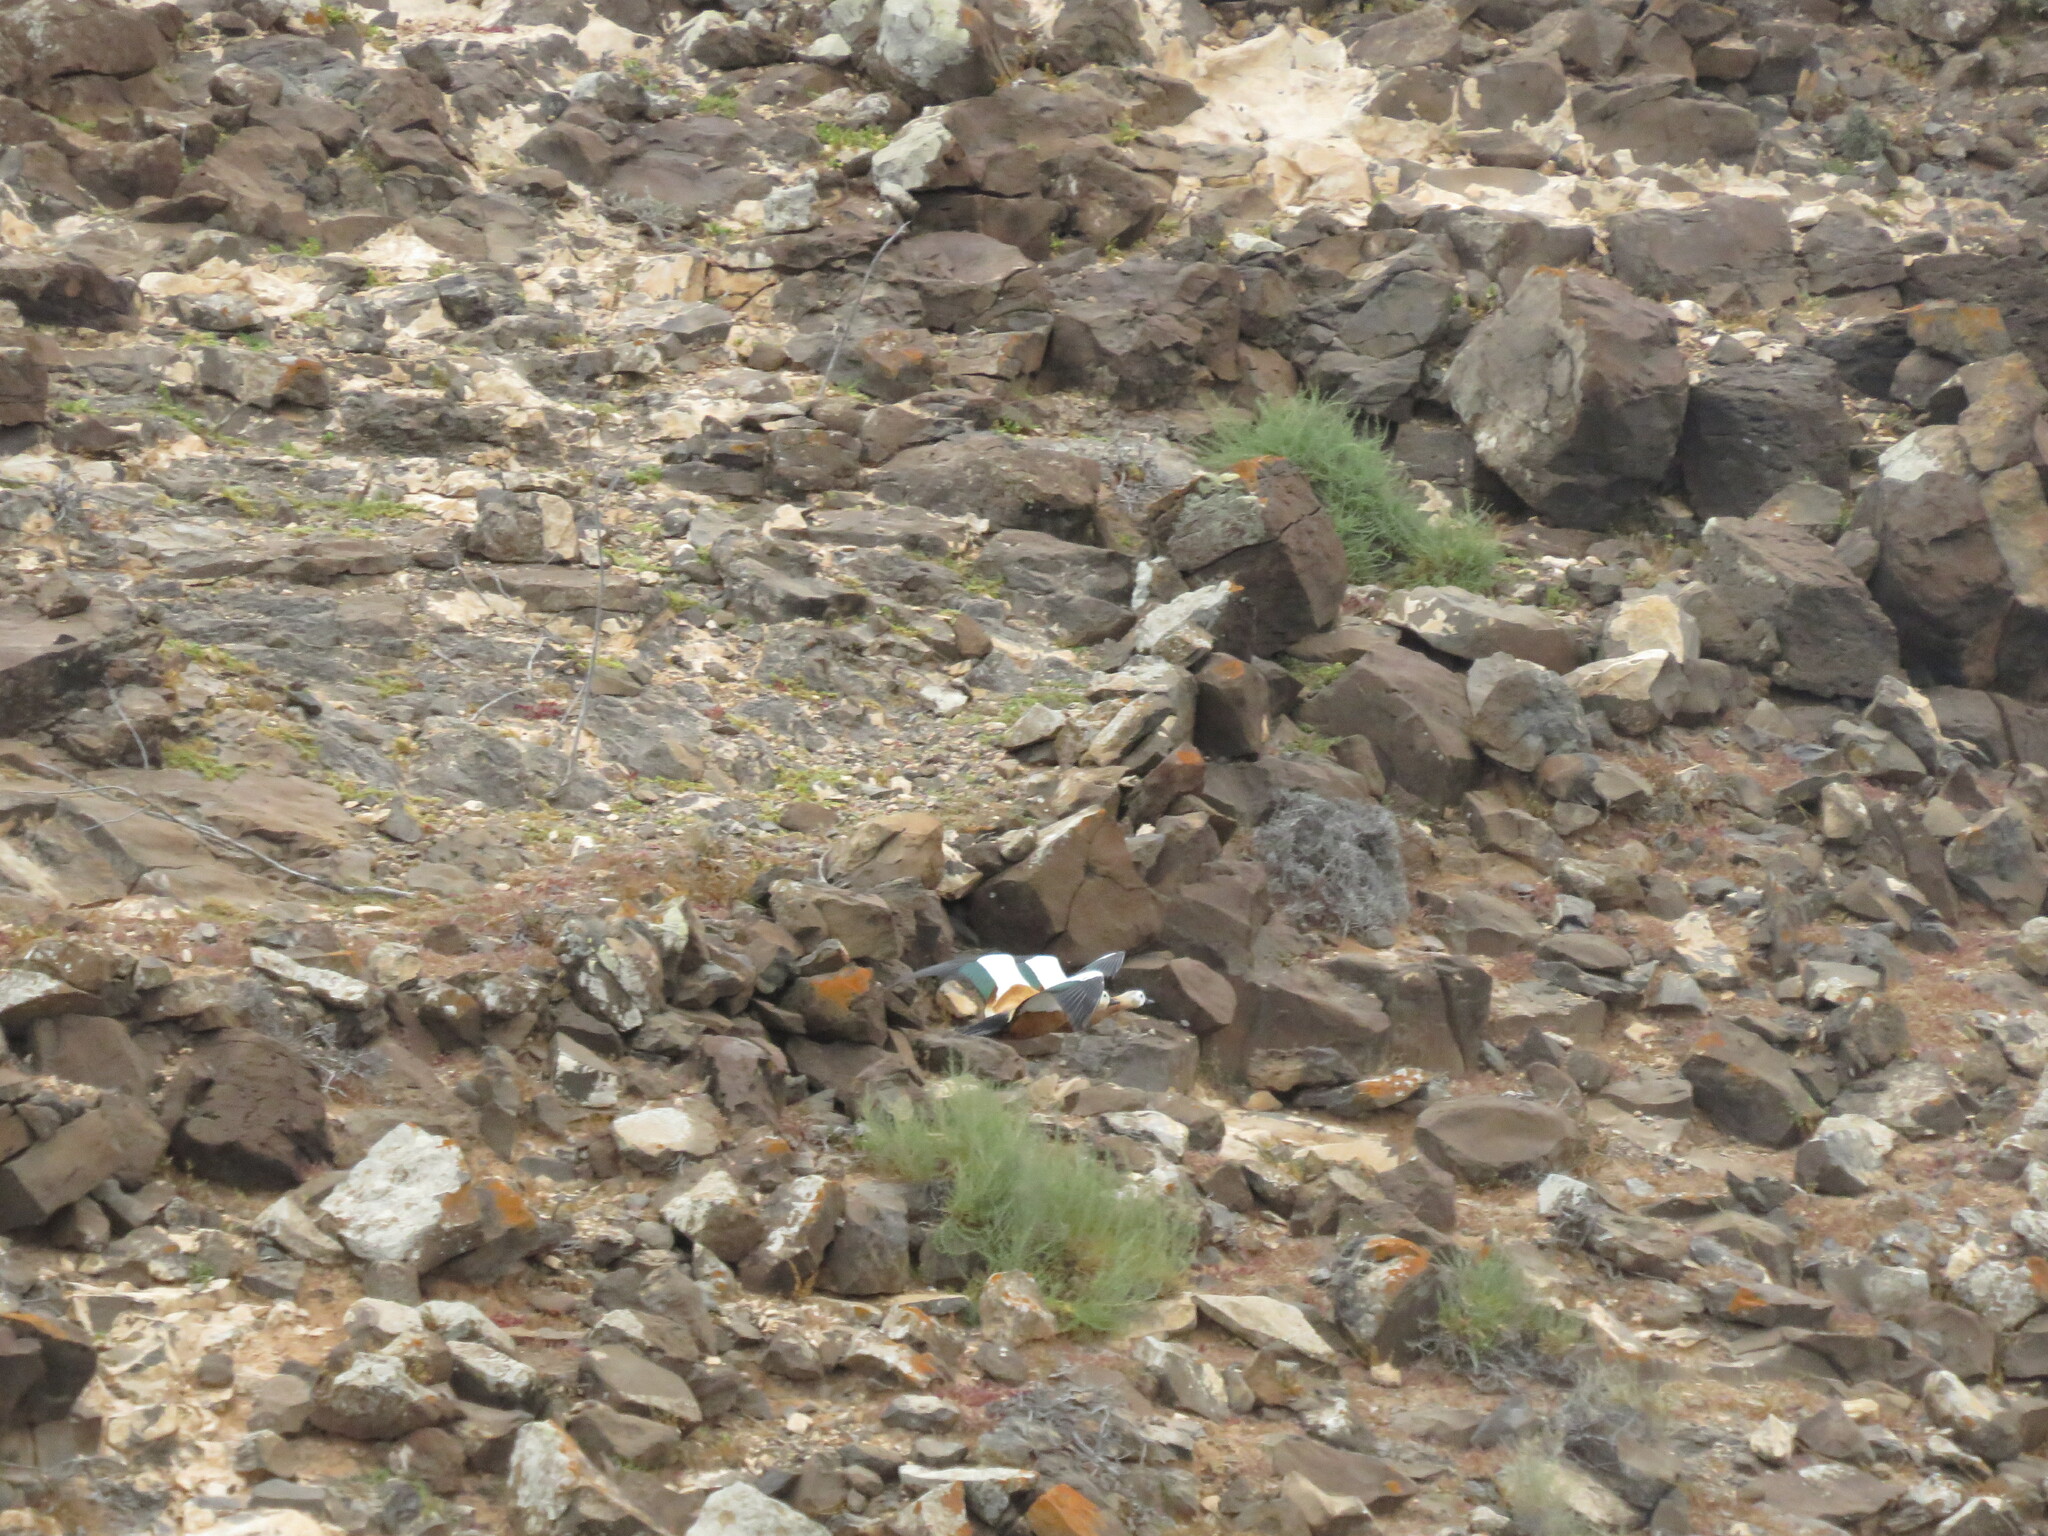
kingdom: Animalia
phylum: Chordata
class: Aves
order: Anseriformes
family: Anatidae
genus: Tadorna
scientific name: Tadorna ferruginea
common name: Ruddy shelduck
